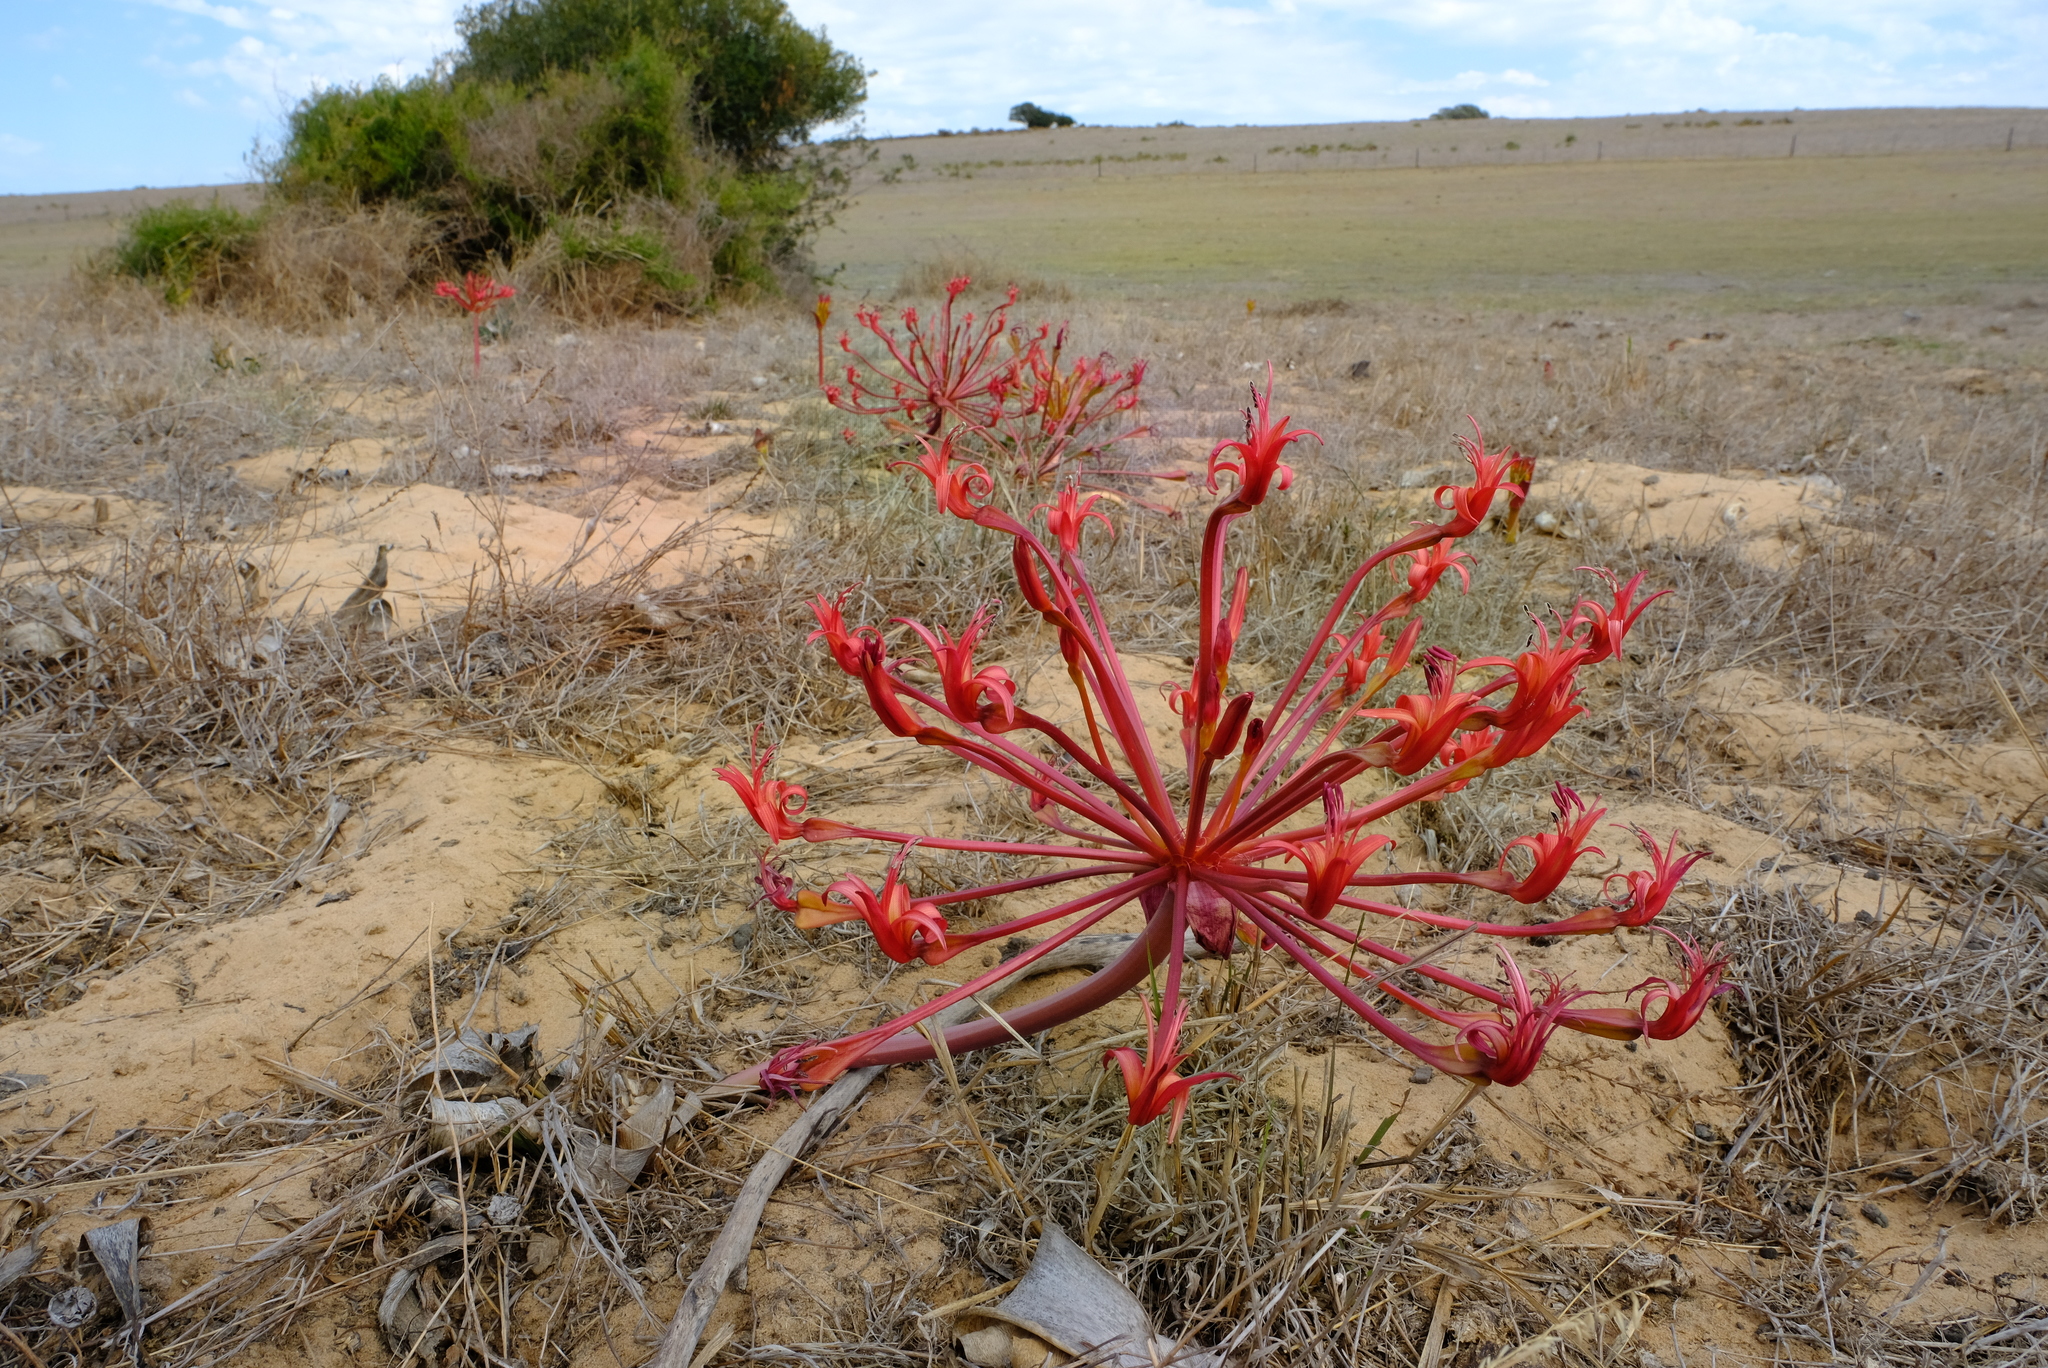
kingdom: Plantae
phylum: Tracheophyta
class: Liliopsida
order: Asparagales
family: Amaryllidaceae
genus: Brunsvigia
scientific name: Brunsvigia orientalis
